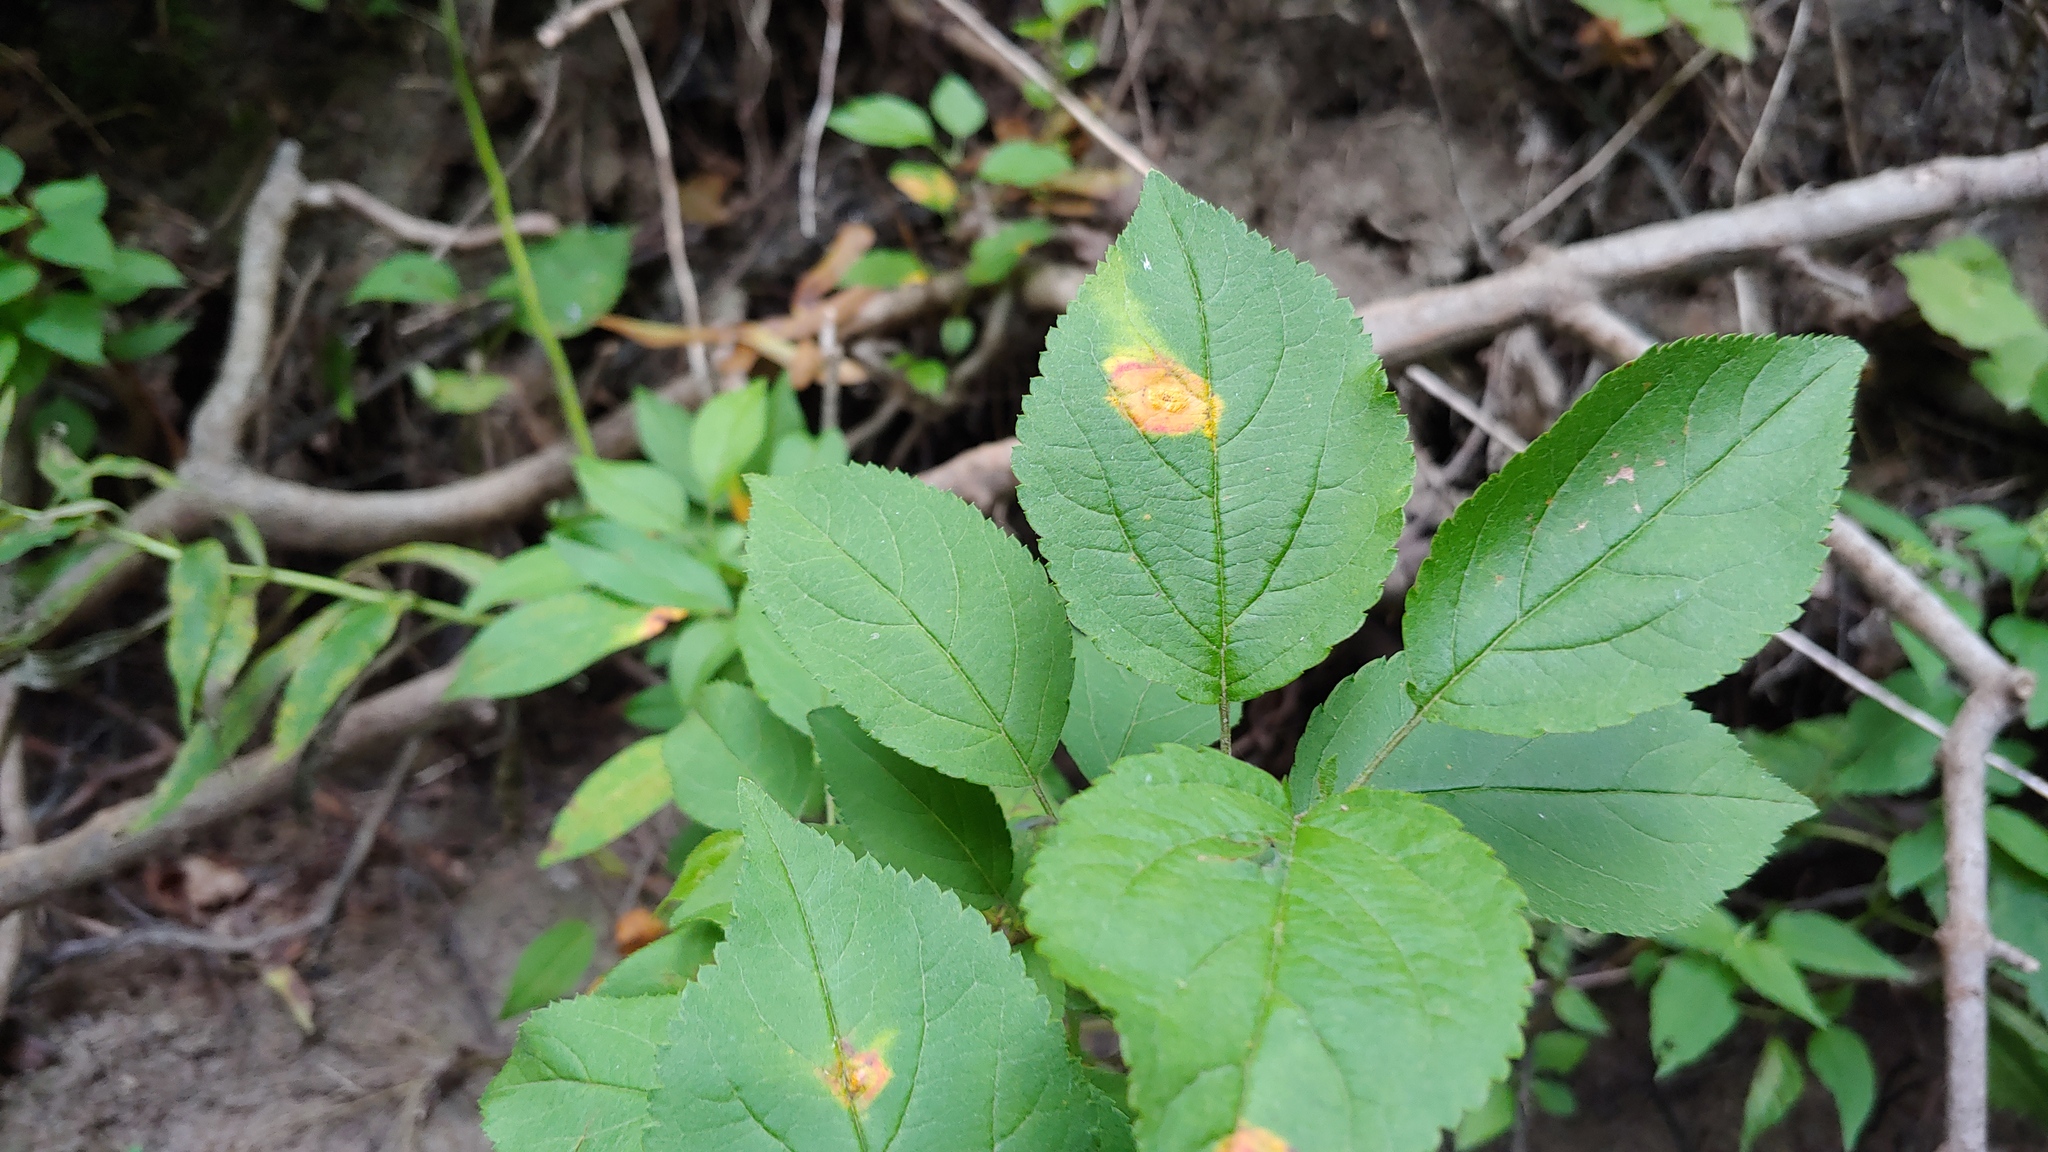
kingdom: Plantae
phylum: Tracheophyta
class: Magnoliopsida
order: Rosales
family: Rosaceae
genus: Malus
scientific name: Malus ioensis
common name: Iowa crab apple
